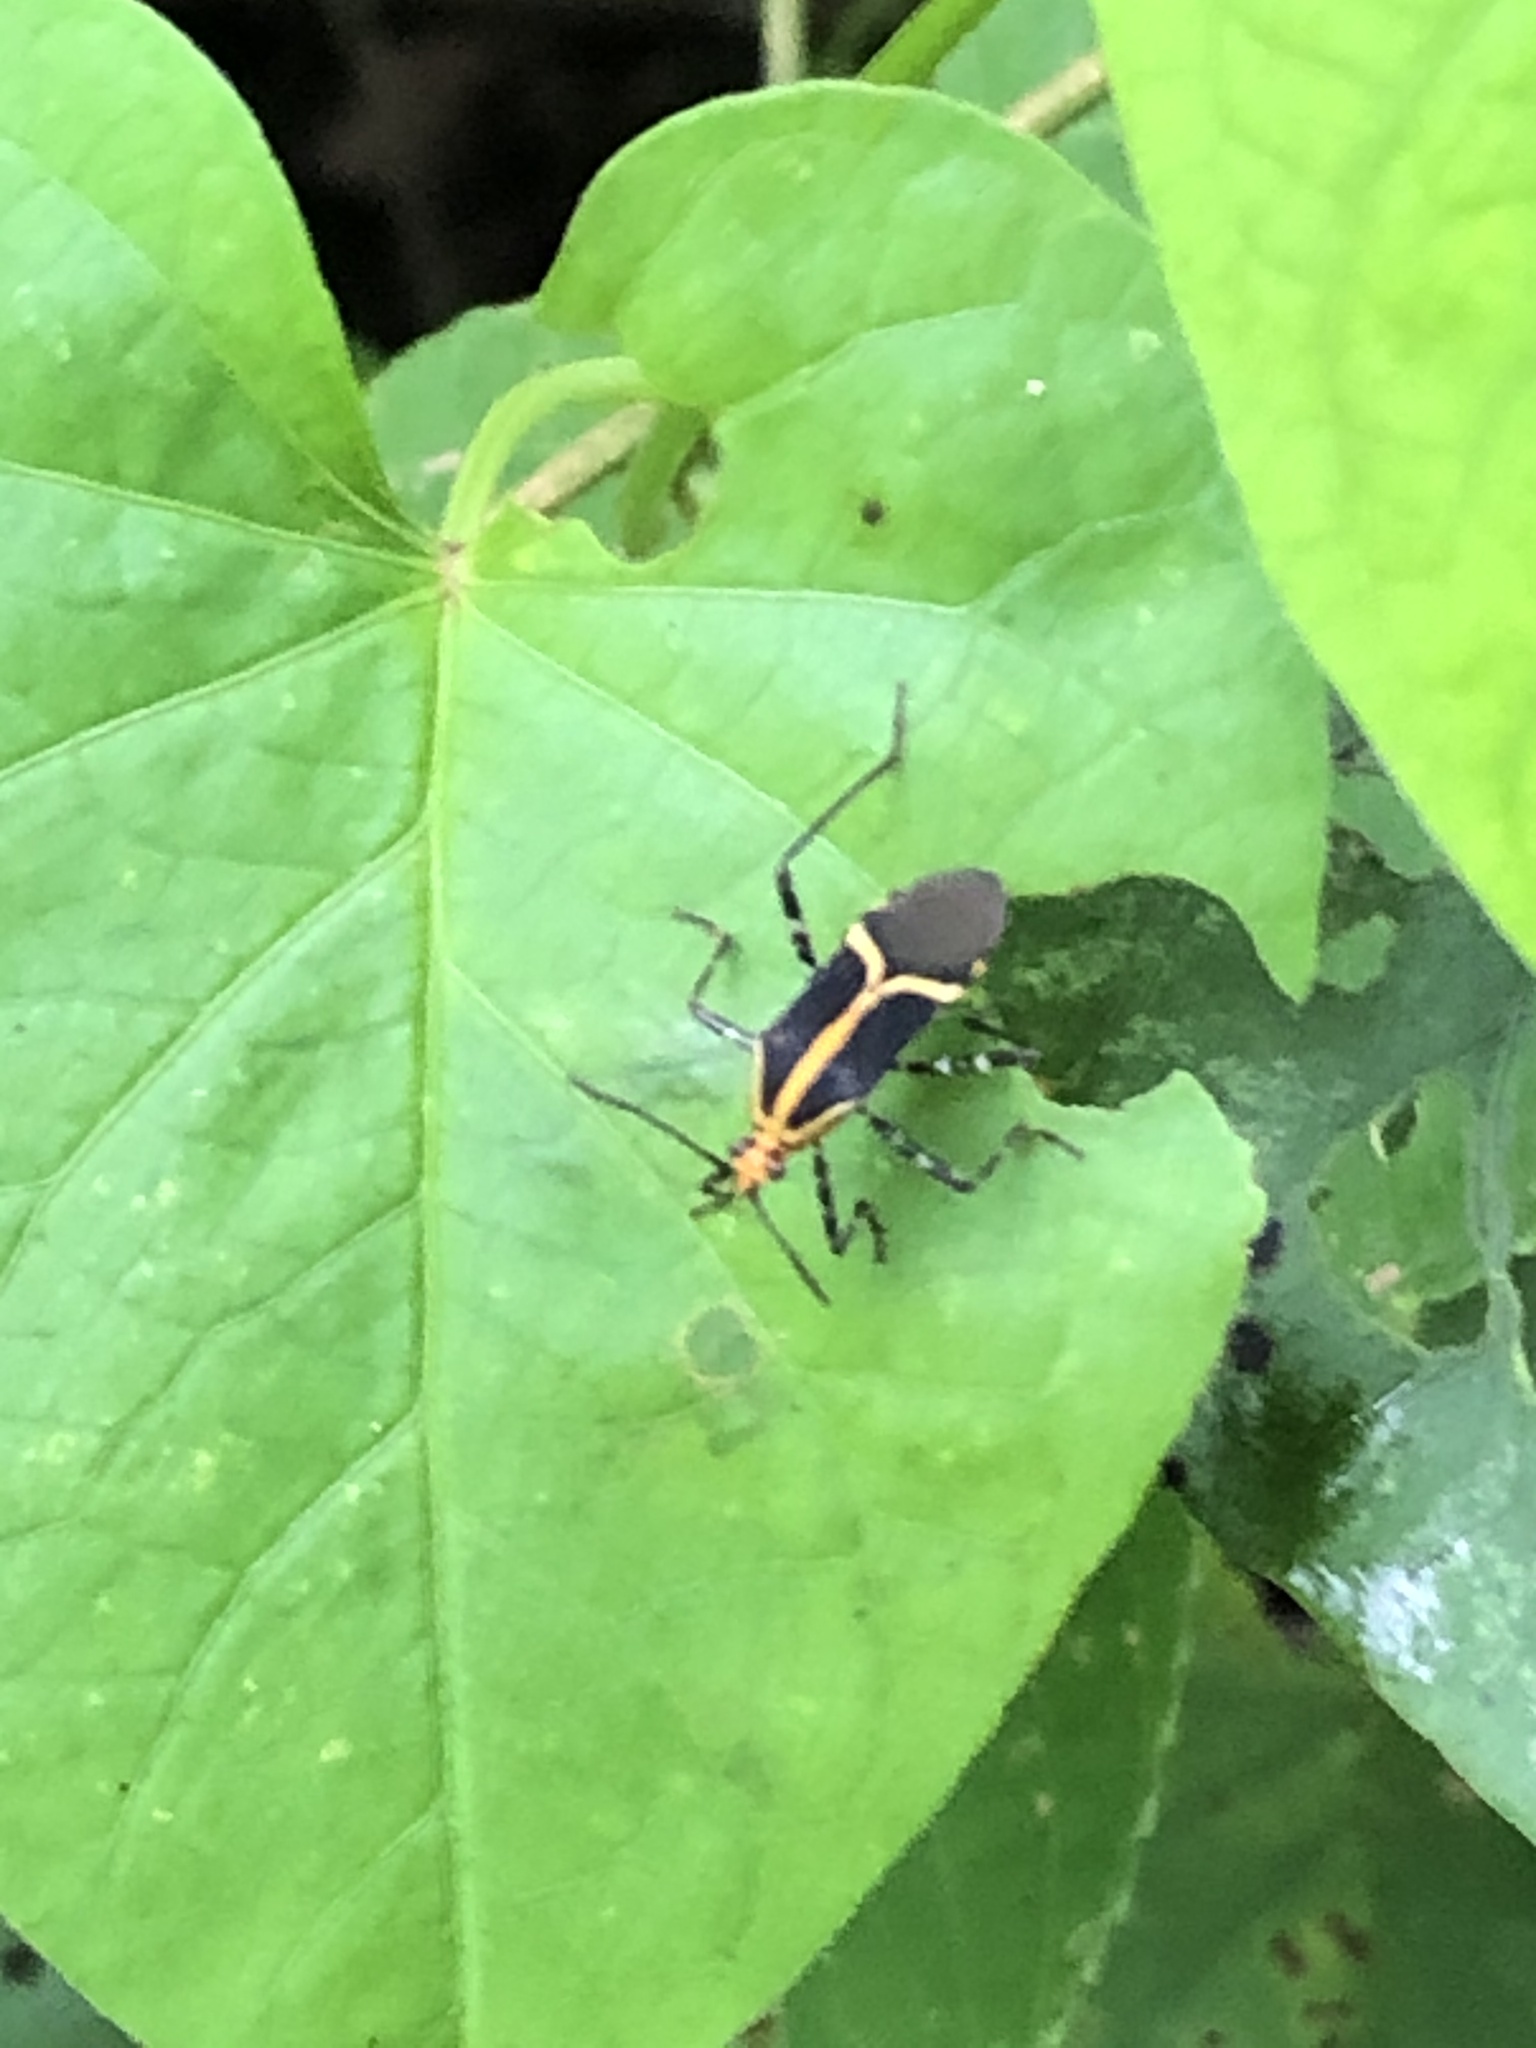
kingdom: Animalia
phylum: Arthropoda
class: Insecta
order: Hemiptera
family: Coreidae
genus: Hypselonotus
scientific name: Hypselonotus linea
